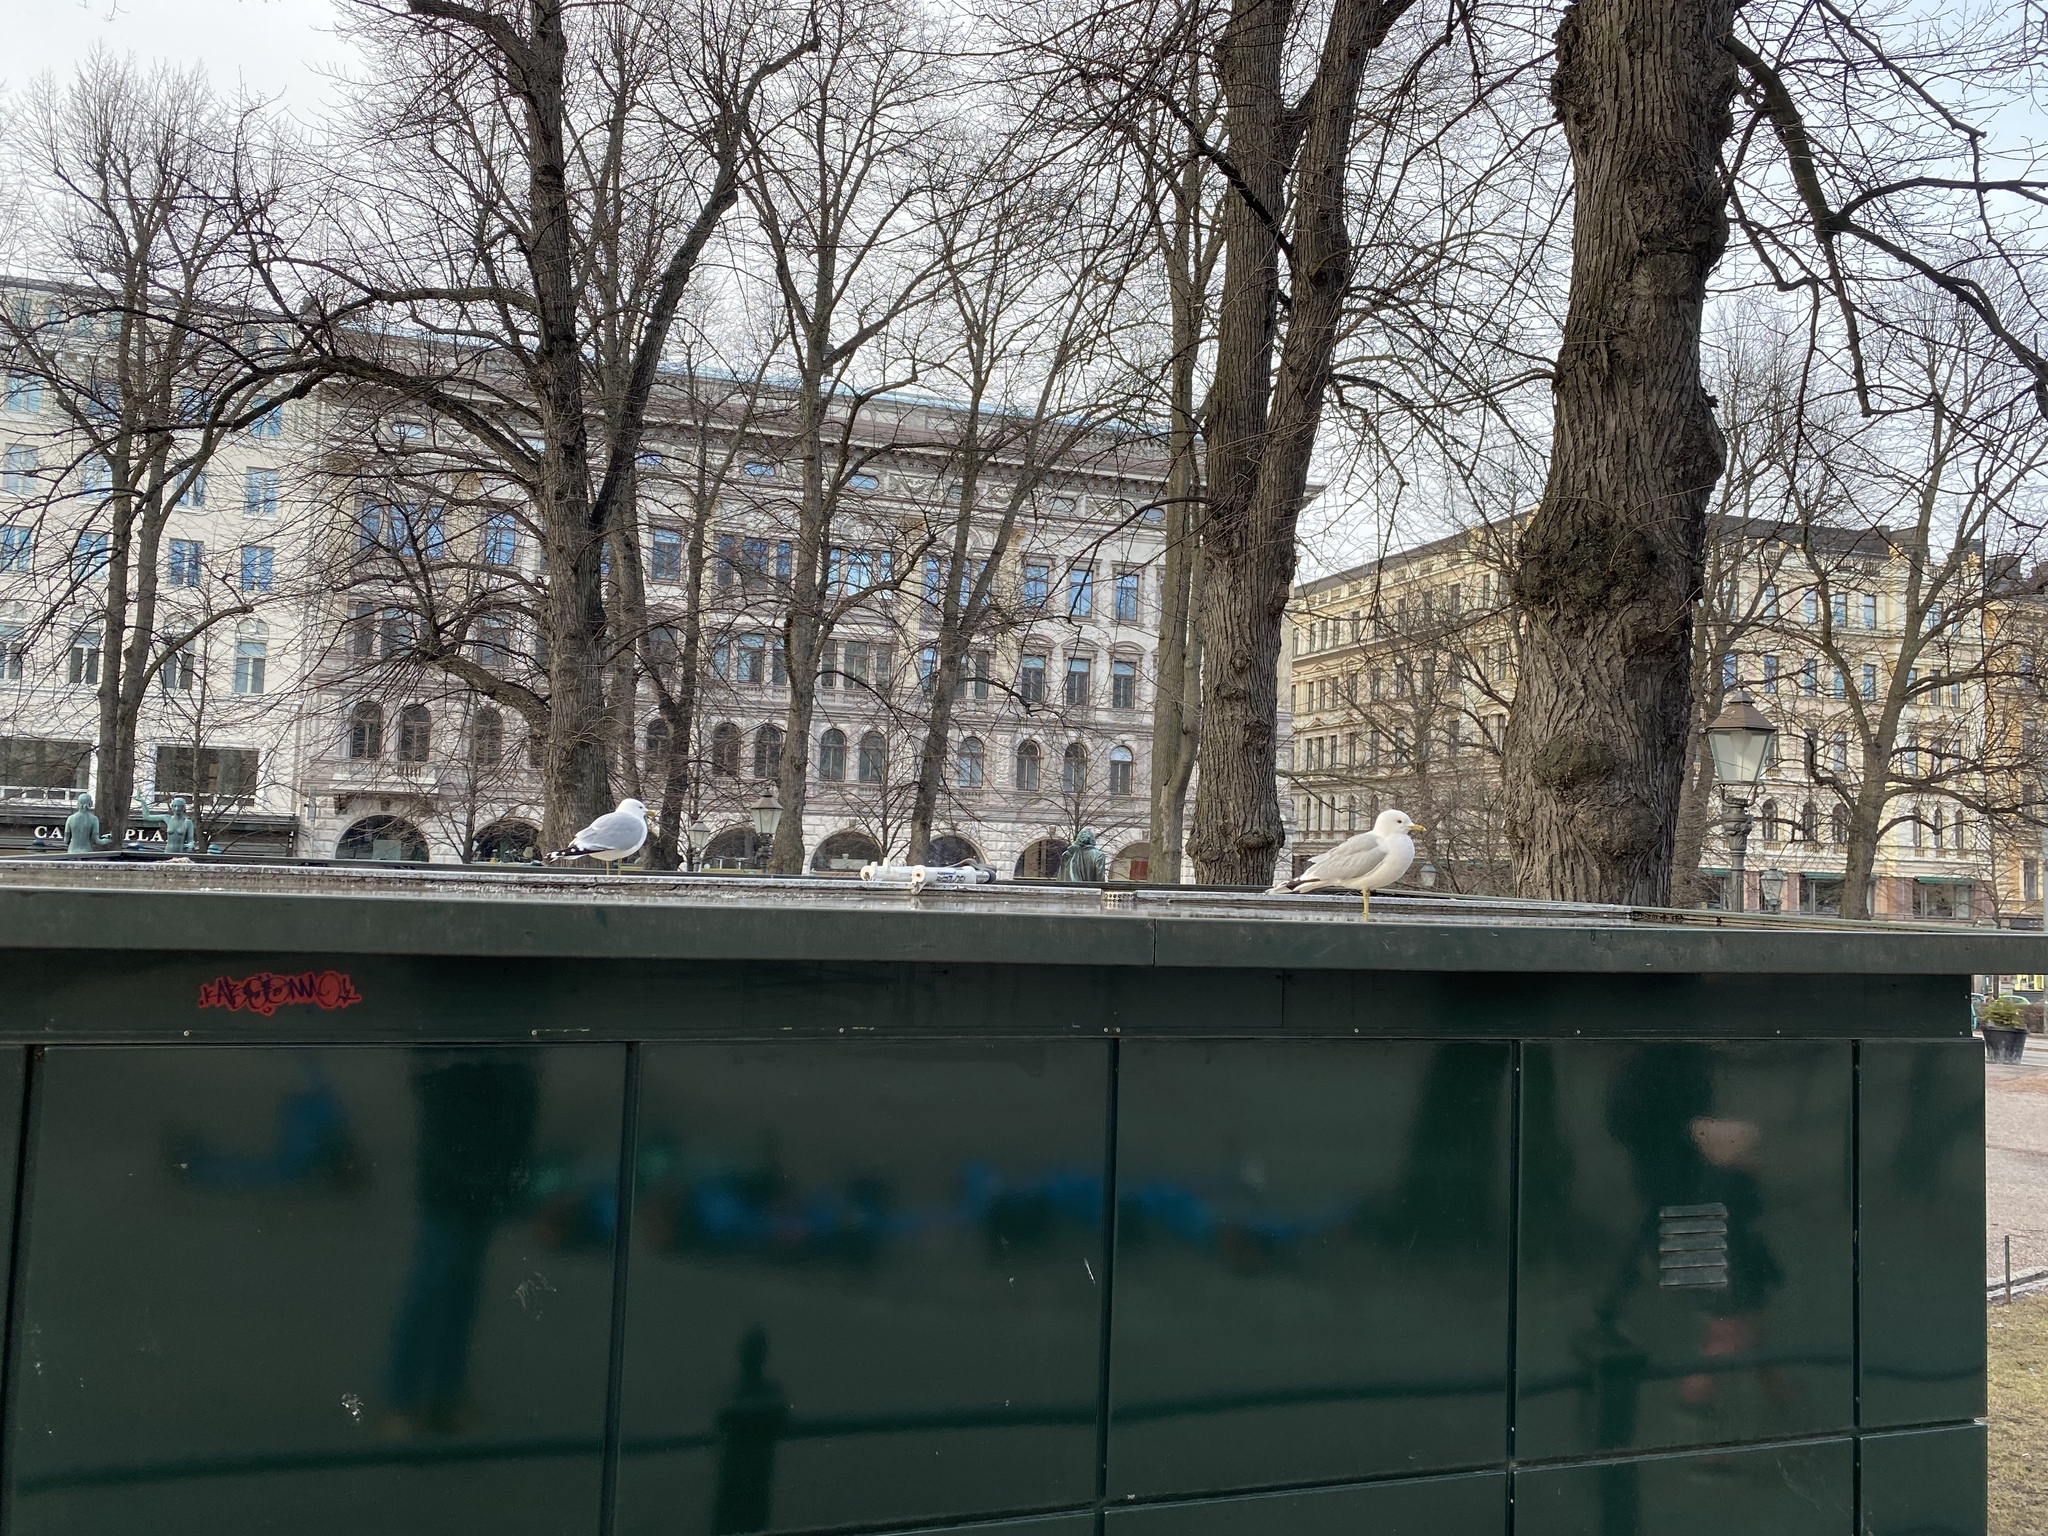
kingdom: Animalia
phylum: Chordata
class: Aves
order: Charadriiformes
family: Laridae
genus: Larus
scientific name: Larus canus
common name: Mew gull
